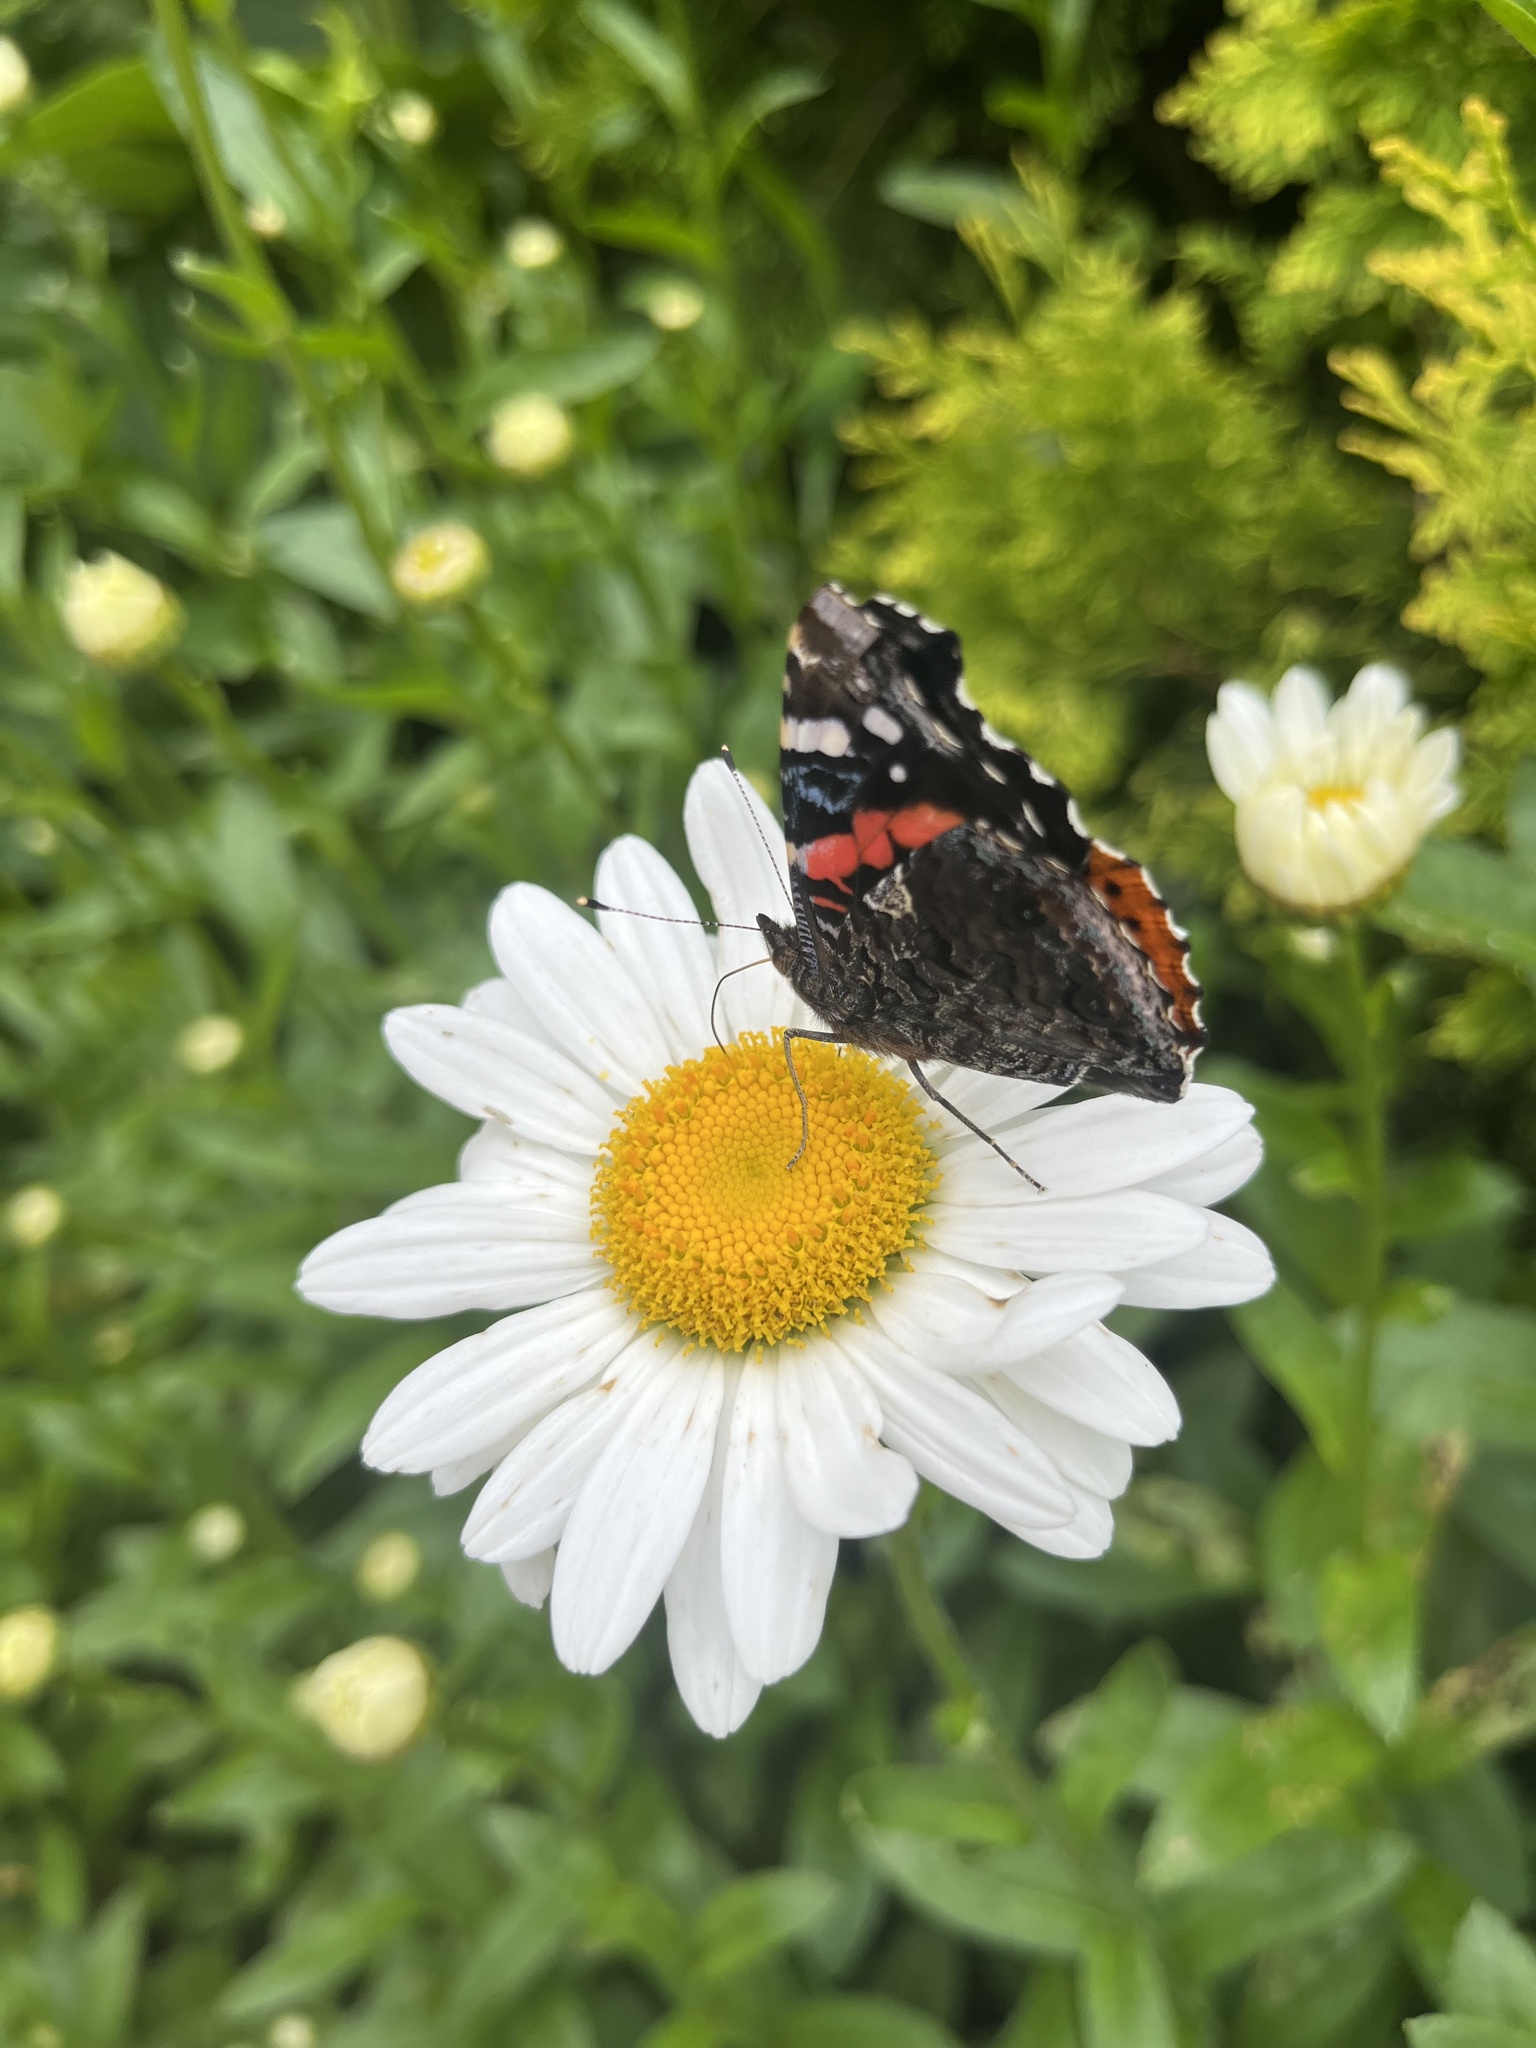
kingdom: Animalia
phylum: Arthropoda
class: Insecta
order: Lepidoptera
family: Nymphalidae
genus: Vanessa
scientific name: Vanessa atalanta
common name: Red admiral
